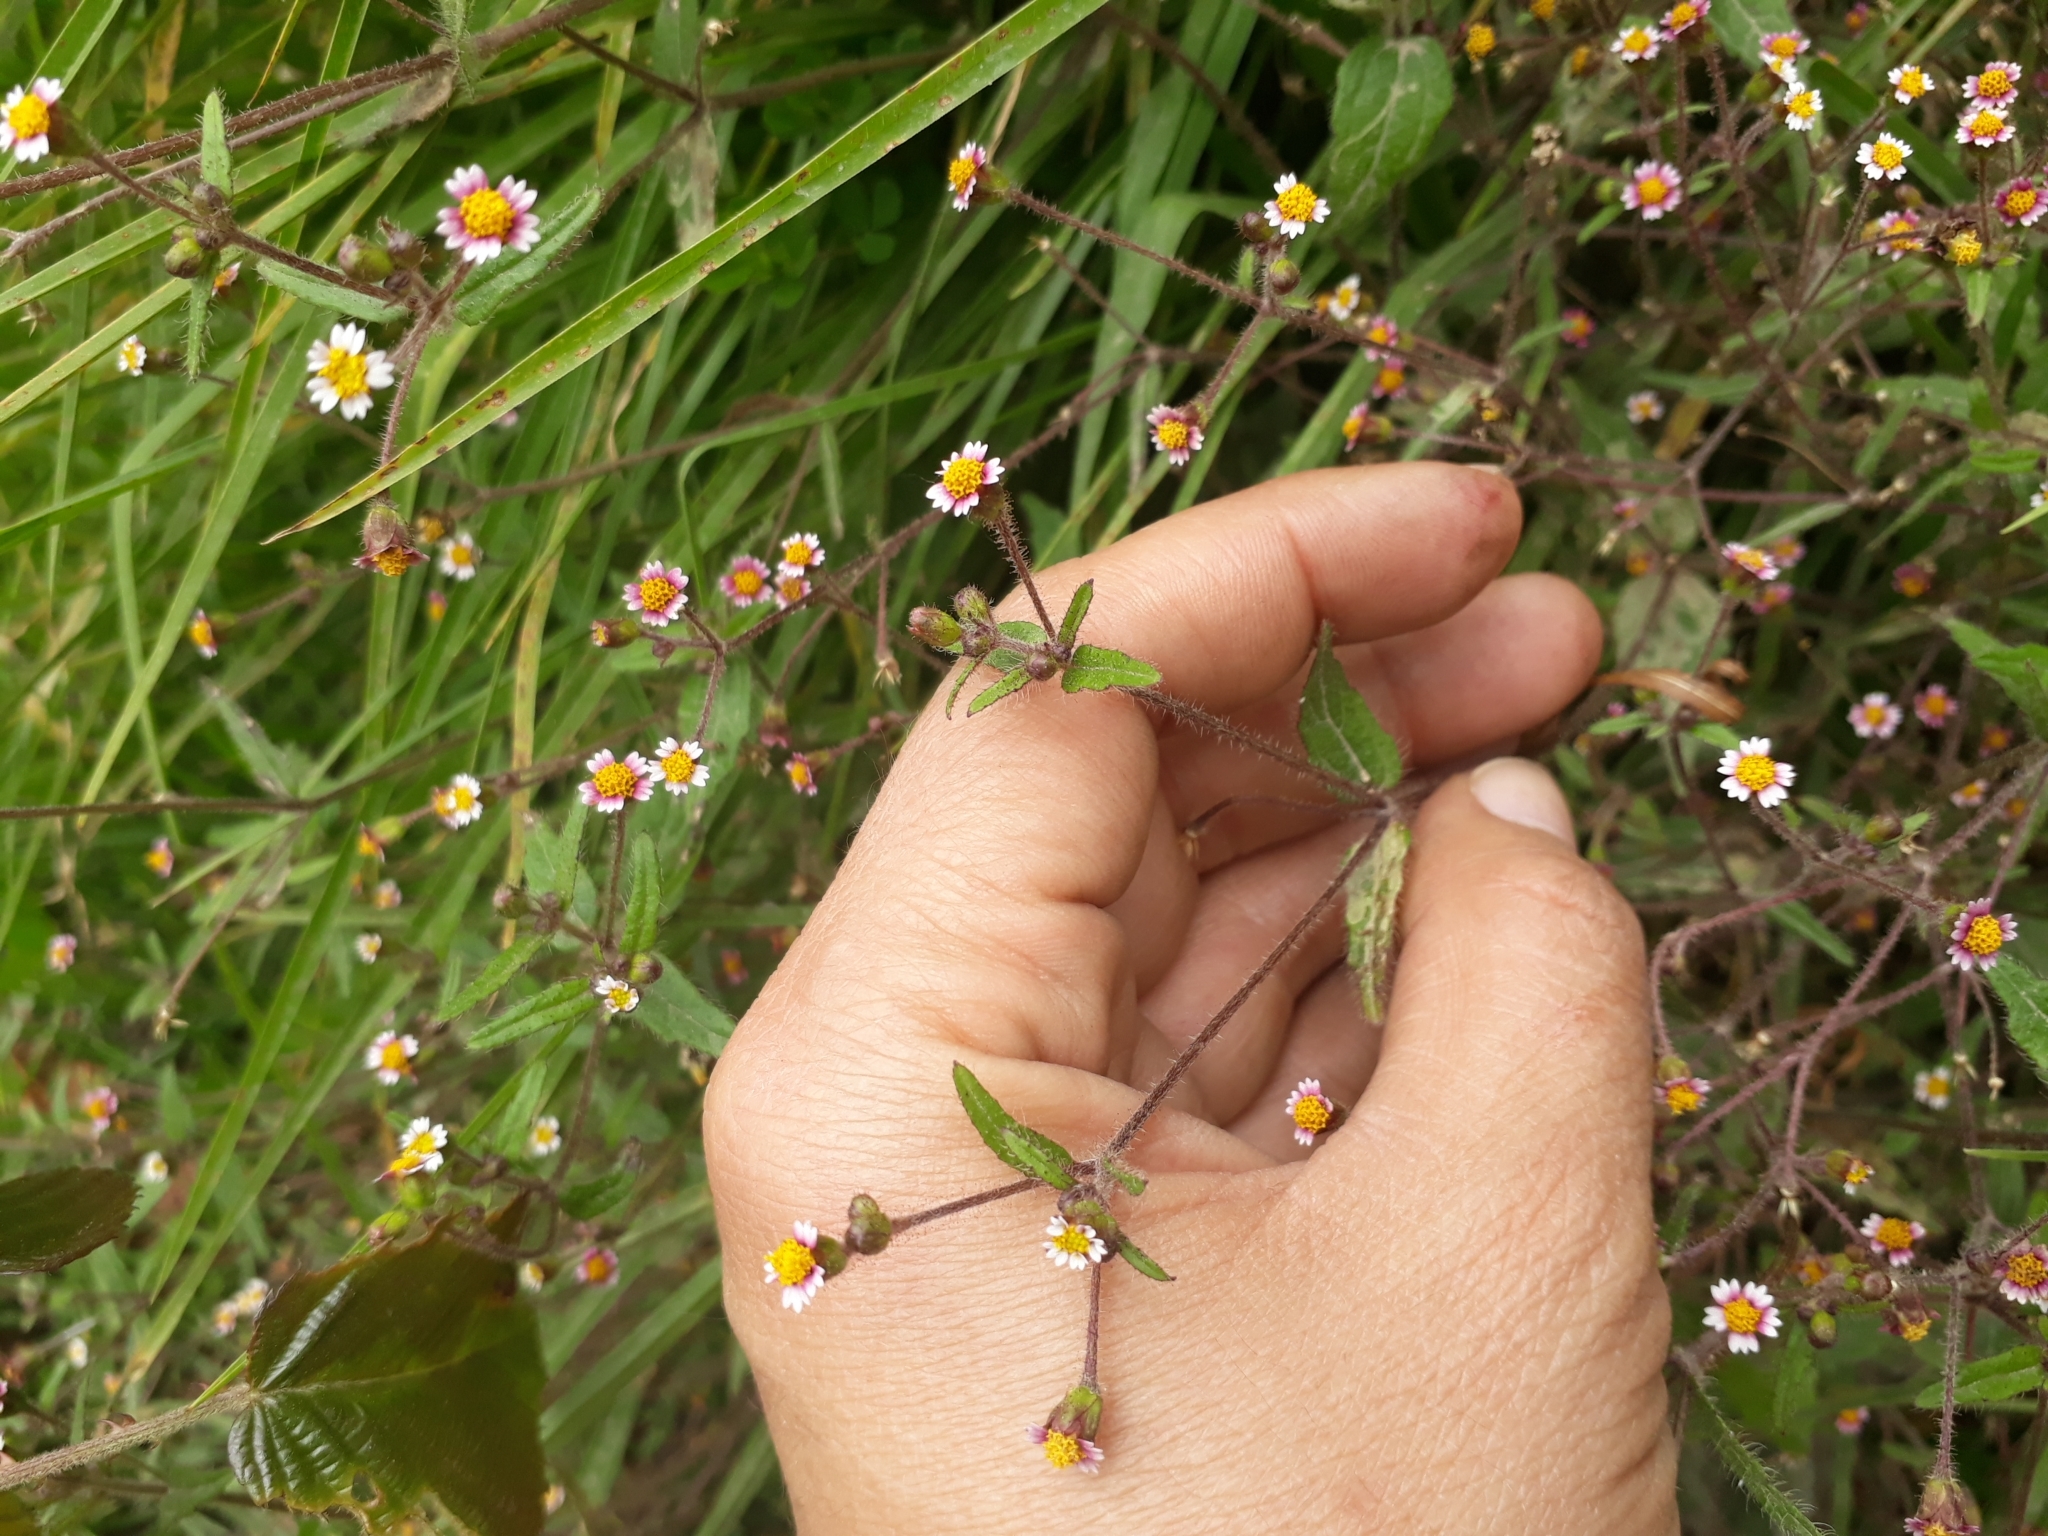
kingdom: Plantae
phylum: Tracheophyta
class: Magnoliopsida
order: Asterales
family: Asteraceae
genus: Galinsoga
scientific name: Galinsoga quadriradiata
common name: Shaggy soldier
